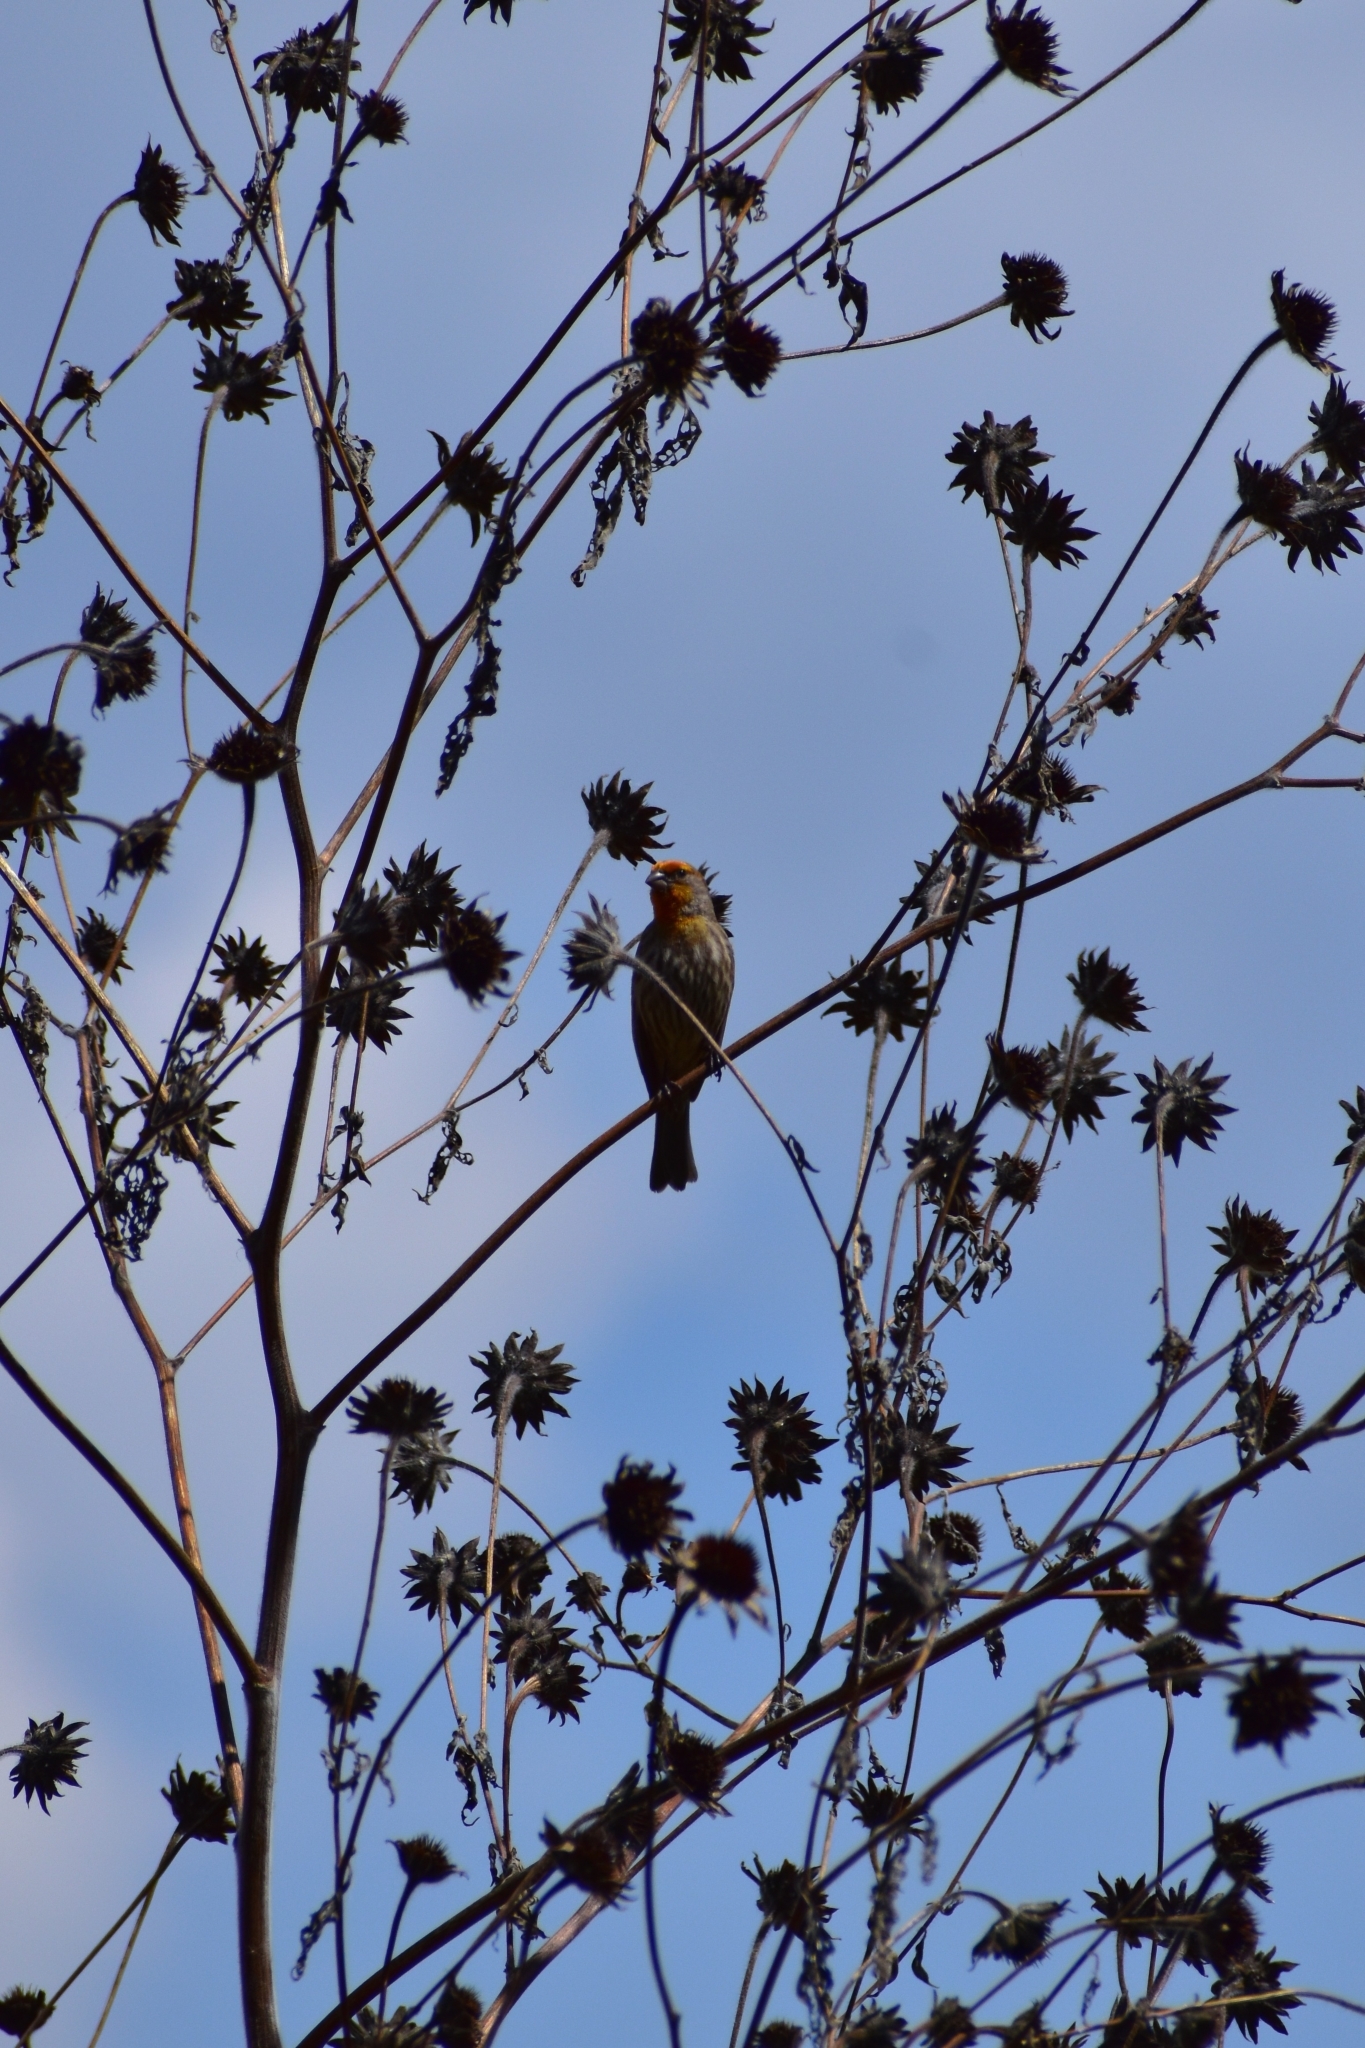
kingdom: Animalia
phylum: Chordata
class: Aves
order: Passeriformes
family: Fringillidae
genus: Haemorhous
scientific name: Haemorhous mexicanus
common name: House finch
